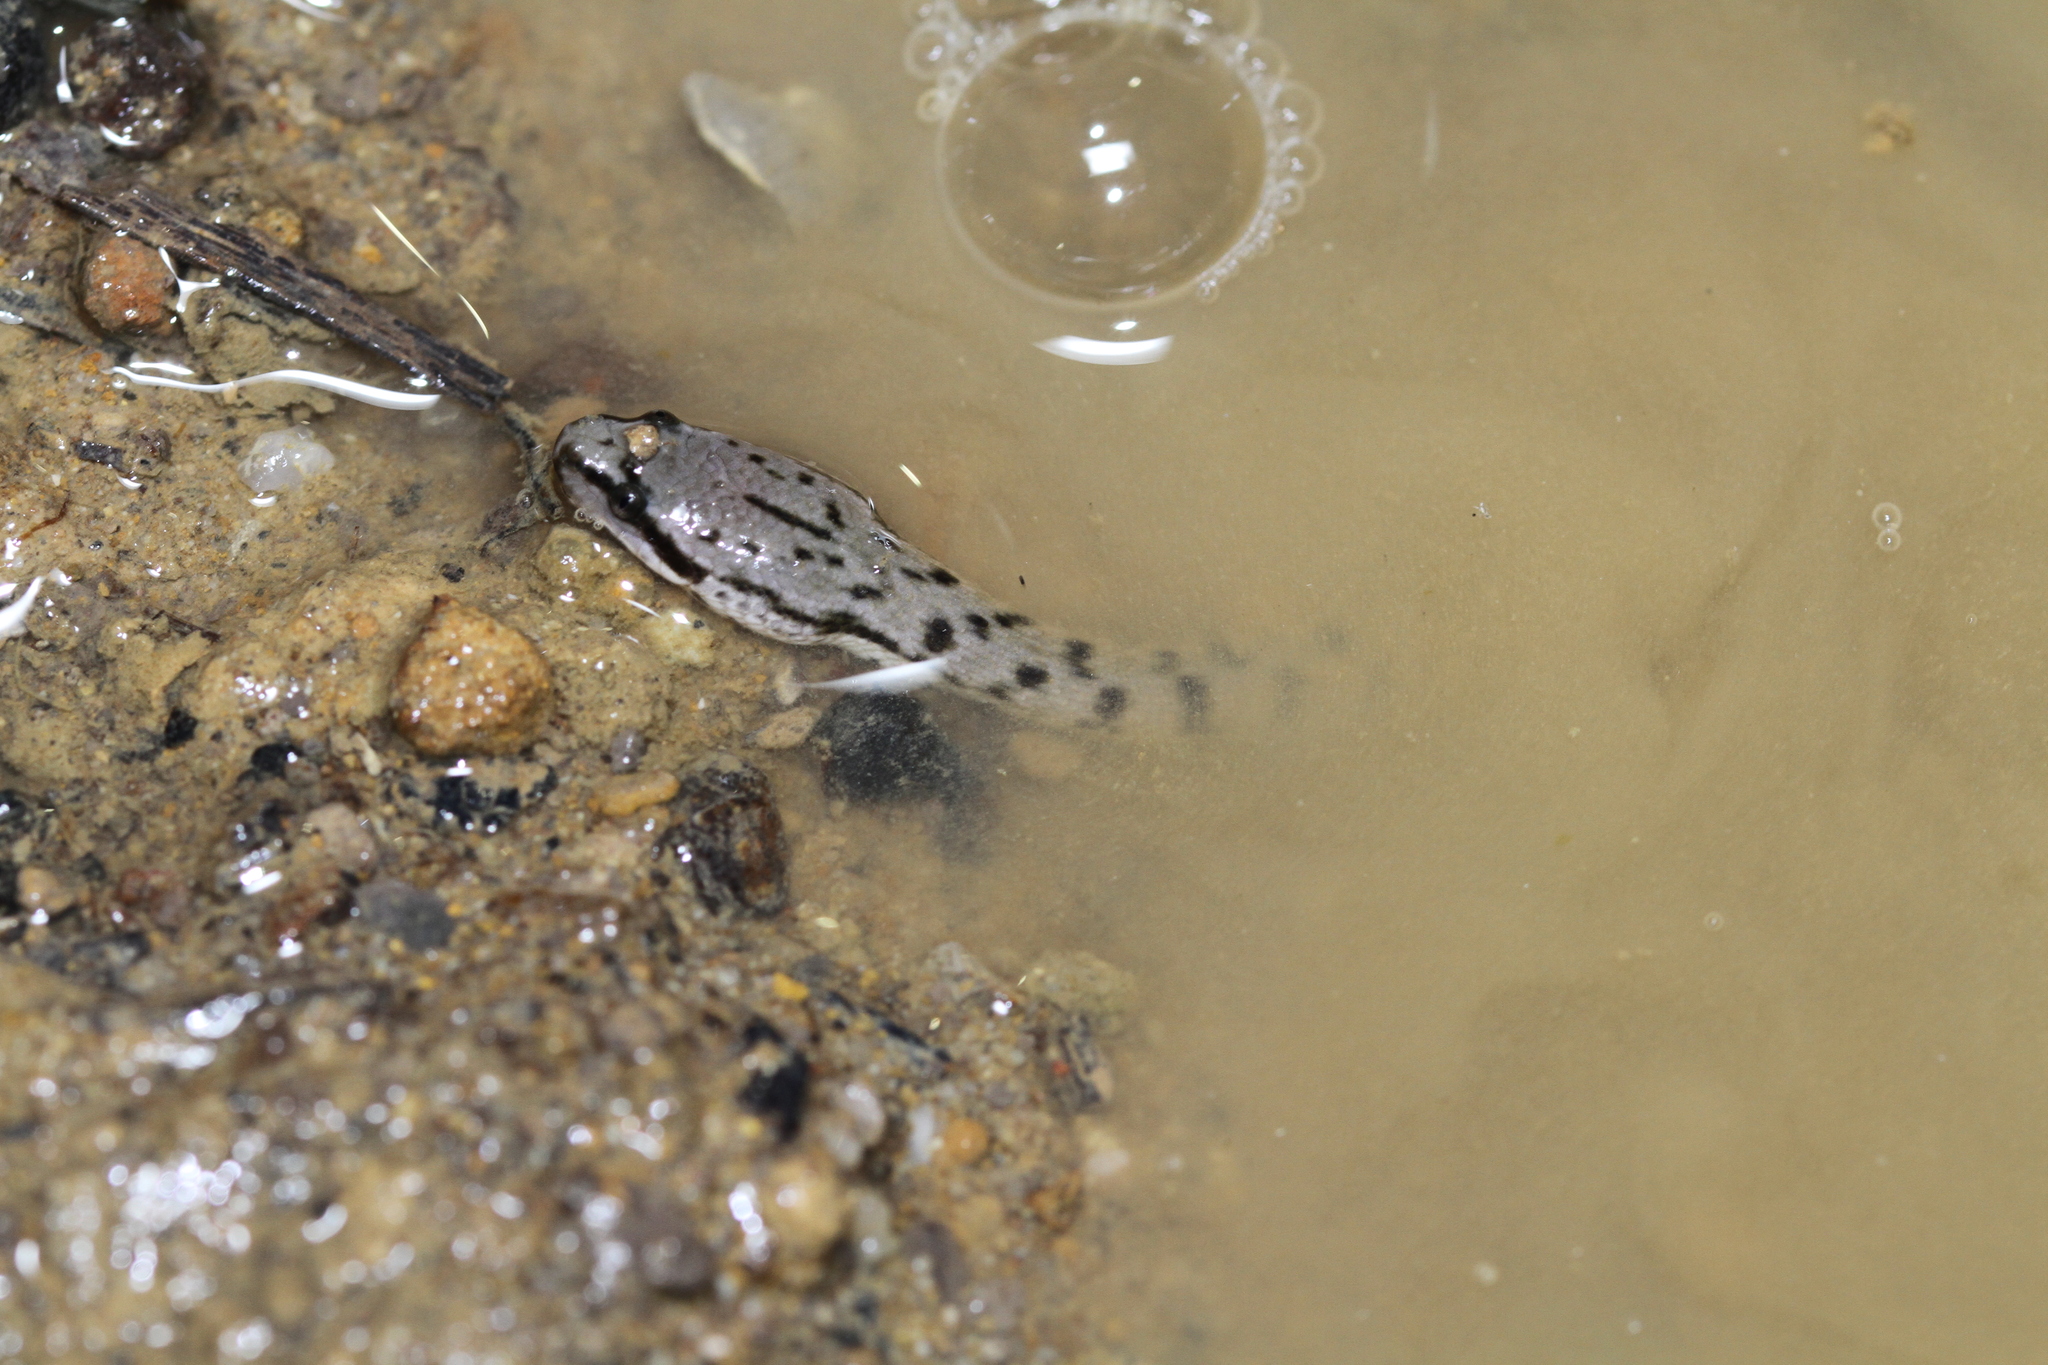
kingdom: Animalia
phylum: Chordata
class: Squamata
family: Homalopsidae
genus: Cerberus
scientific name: Cerberus schneiderii
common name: Southeast asian bockadam
